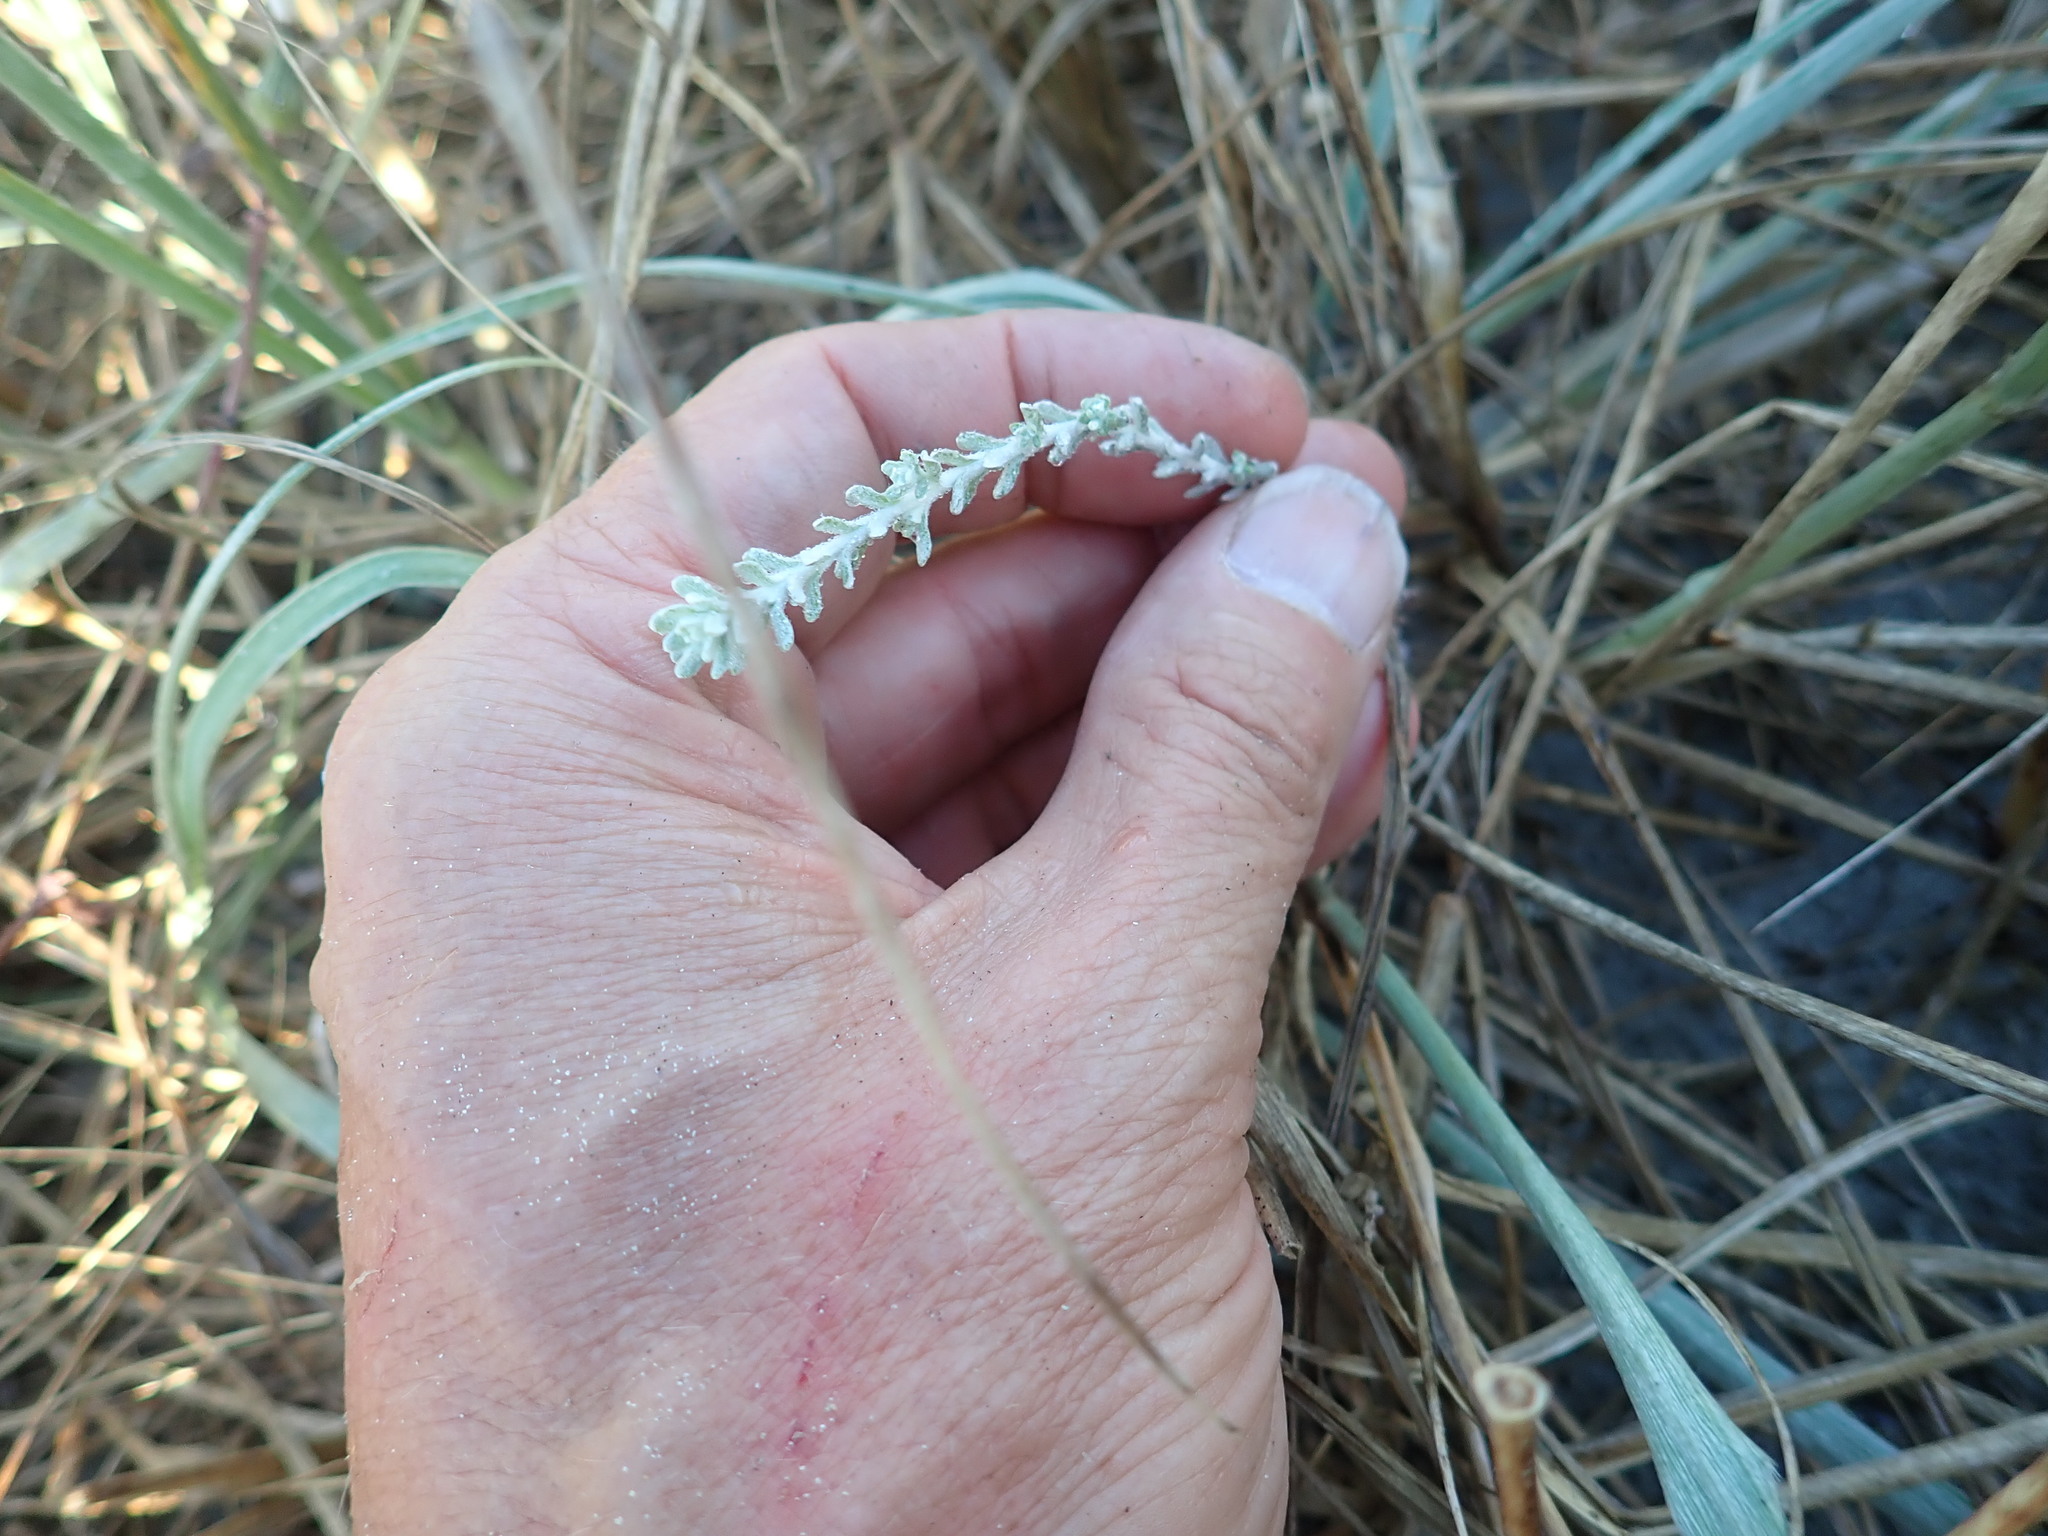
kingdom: Plantae
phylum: Tracheophyta
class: Magnoliopsida
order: Asterales
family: Asteraceae
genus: Ozothamnus
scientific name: Ozothamnus leptophyllus
